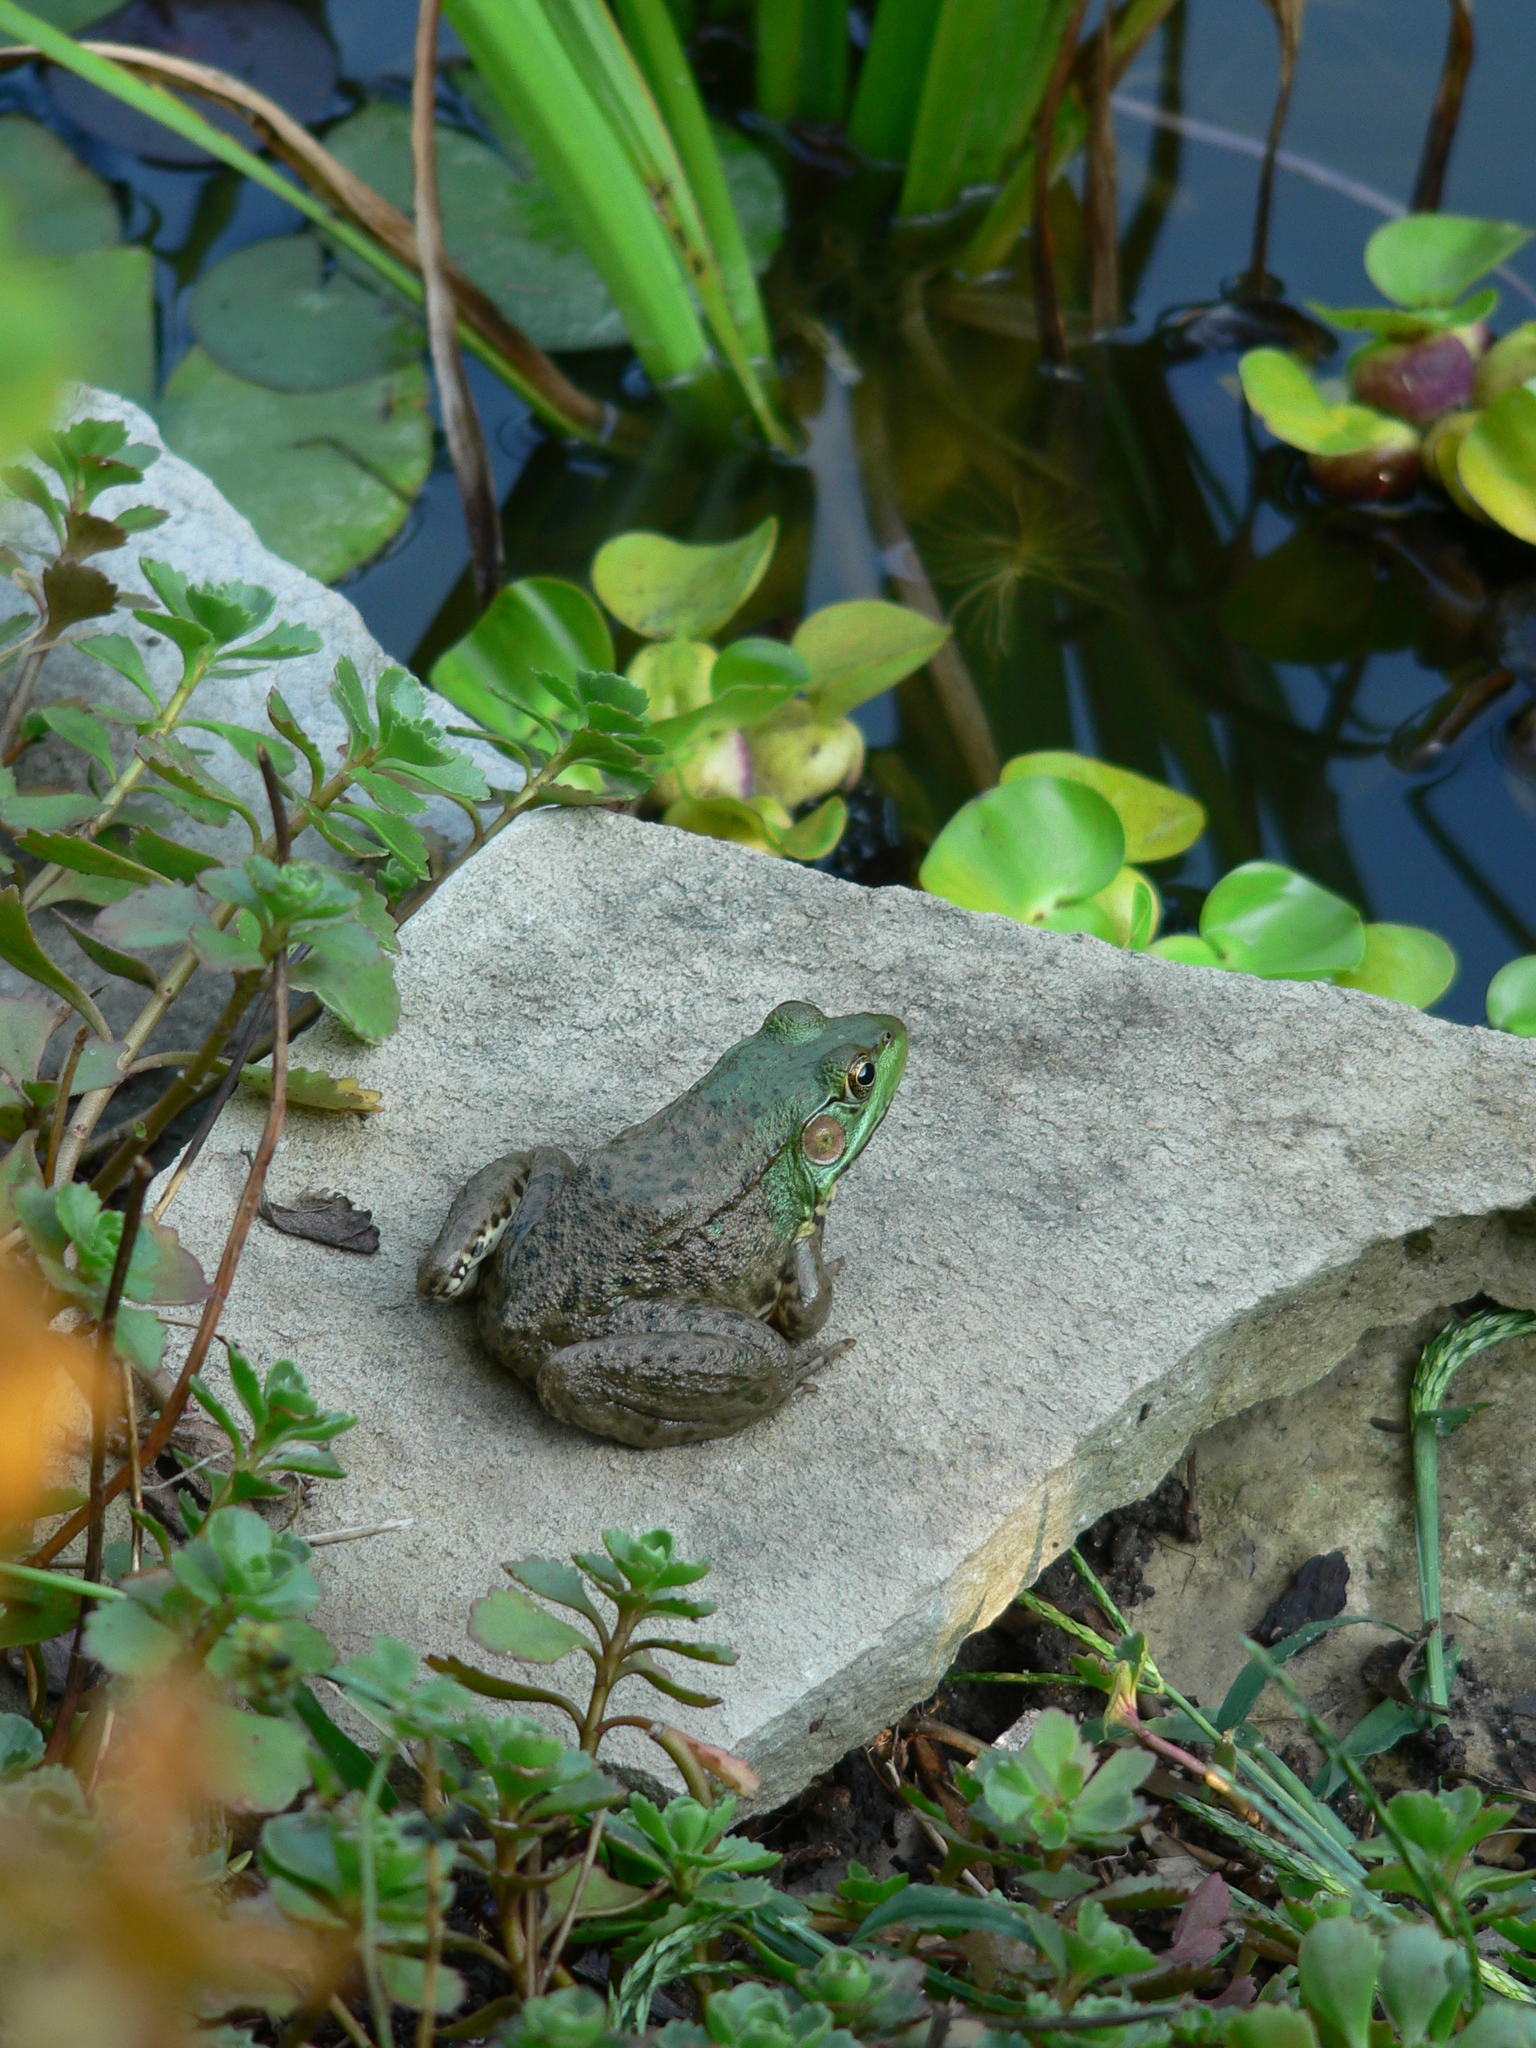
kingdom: Animalia
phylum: Chordata
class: Amphibia
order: Anura
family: Ranidae
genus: Lithobates
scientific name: Lithobates clamitans
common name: Green frog
